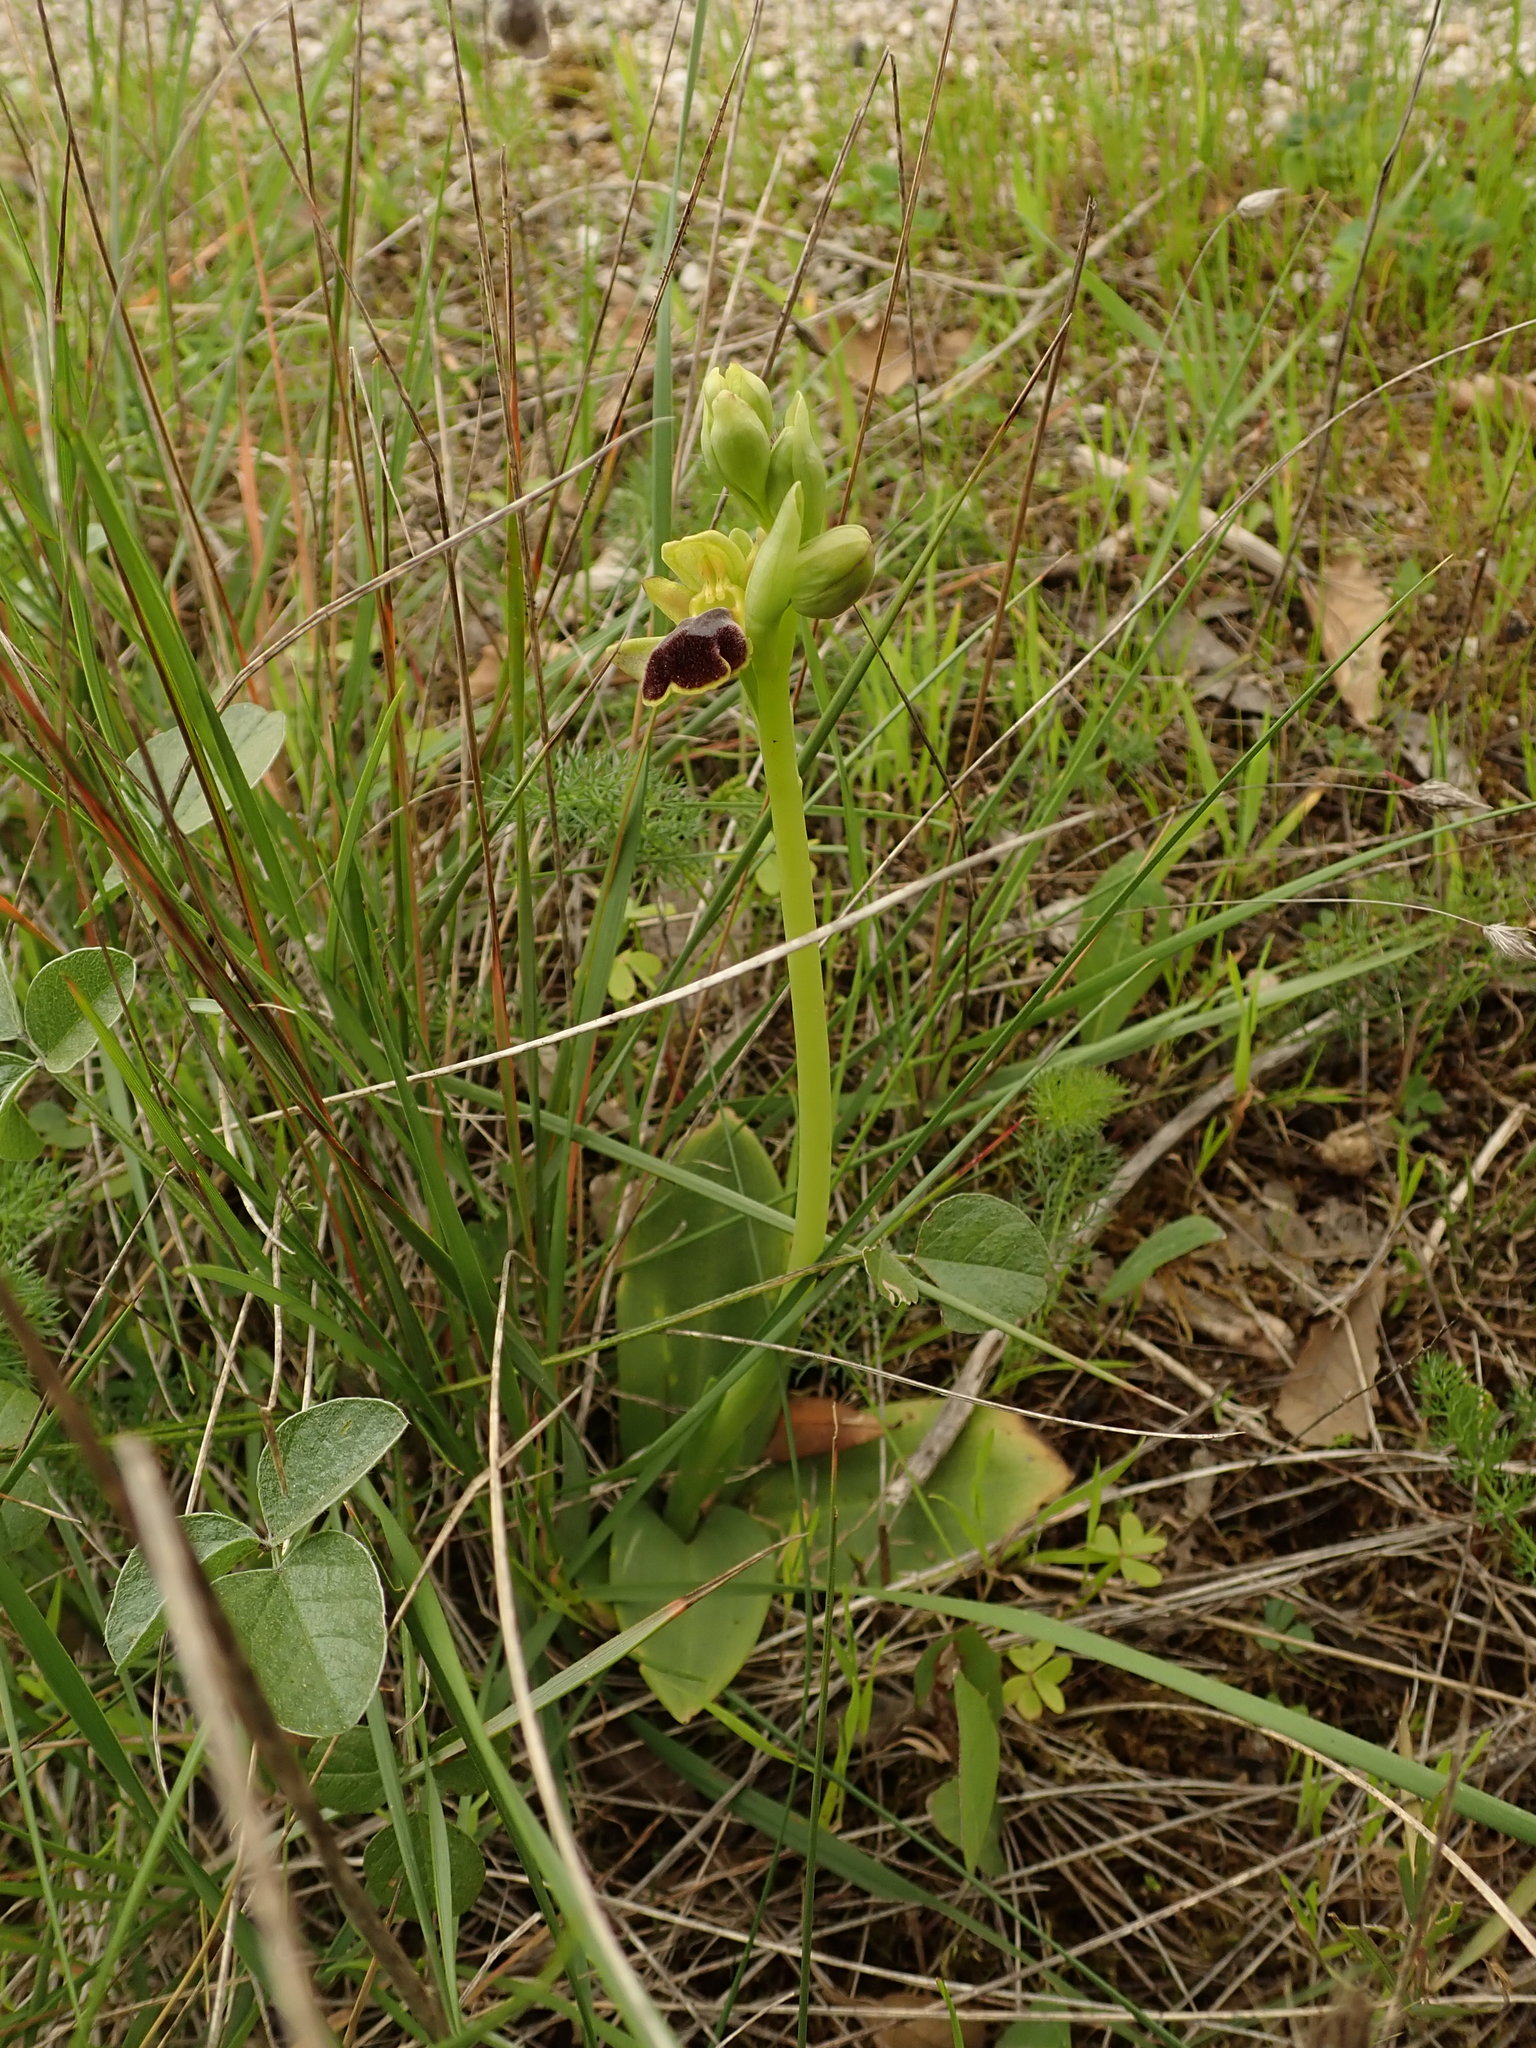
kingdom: Plantae
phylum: Tracheophyta
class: Liliopsida
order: Asparagales
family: Orchidaceae
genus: Ophrys
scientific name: Ophrys fusca
